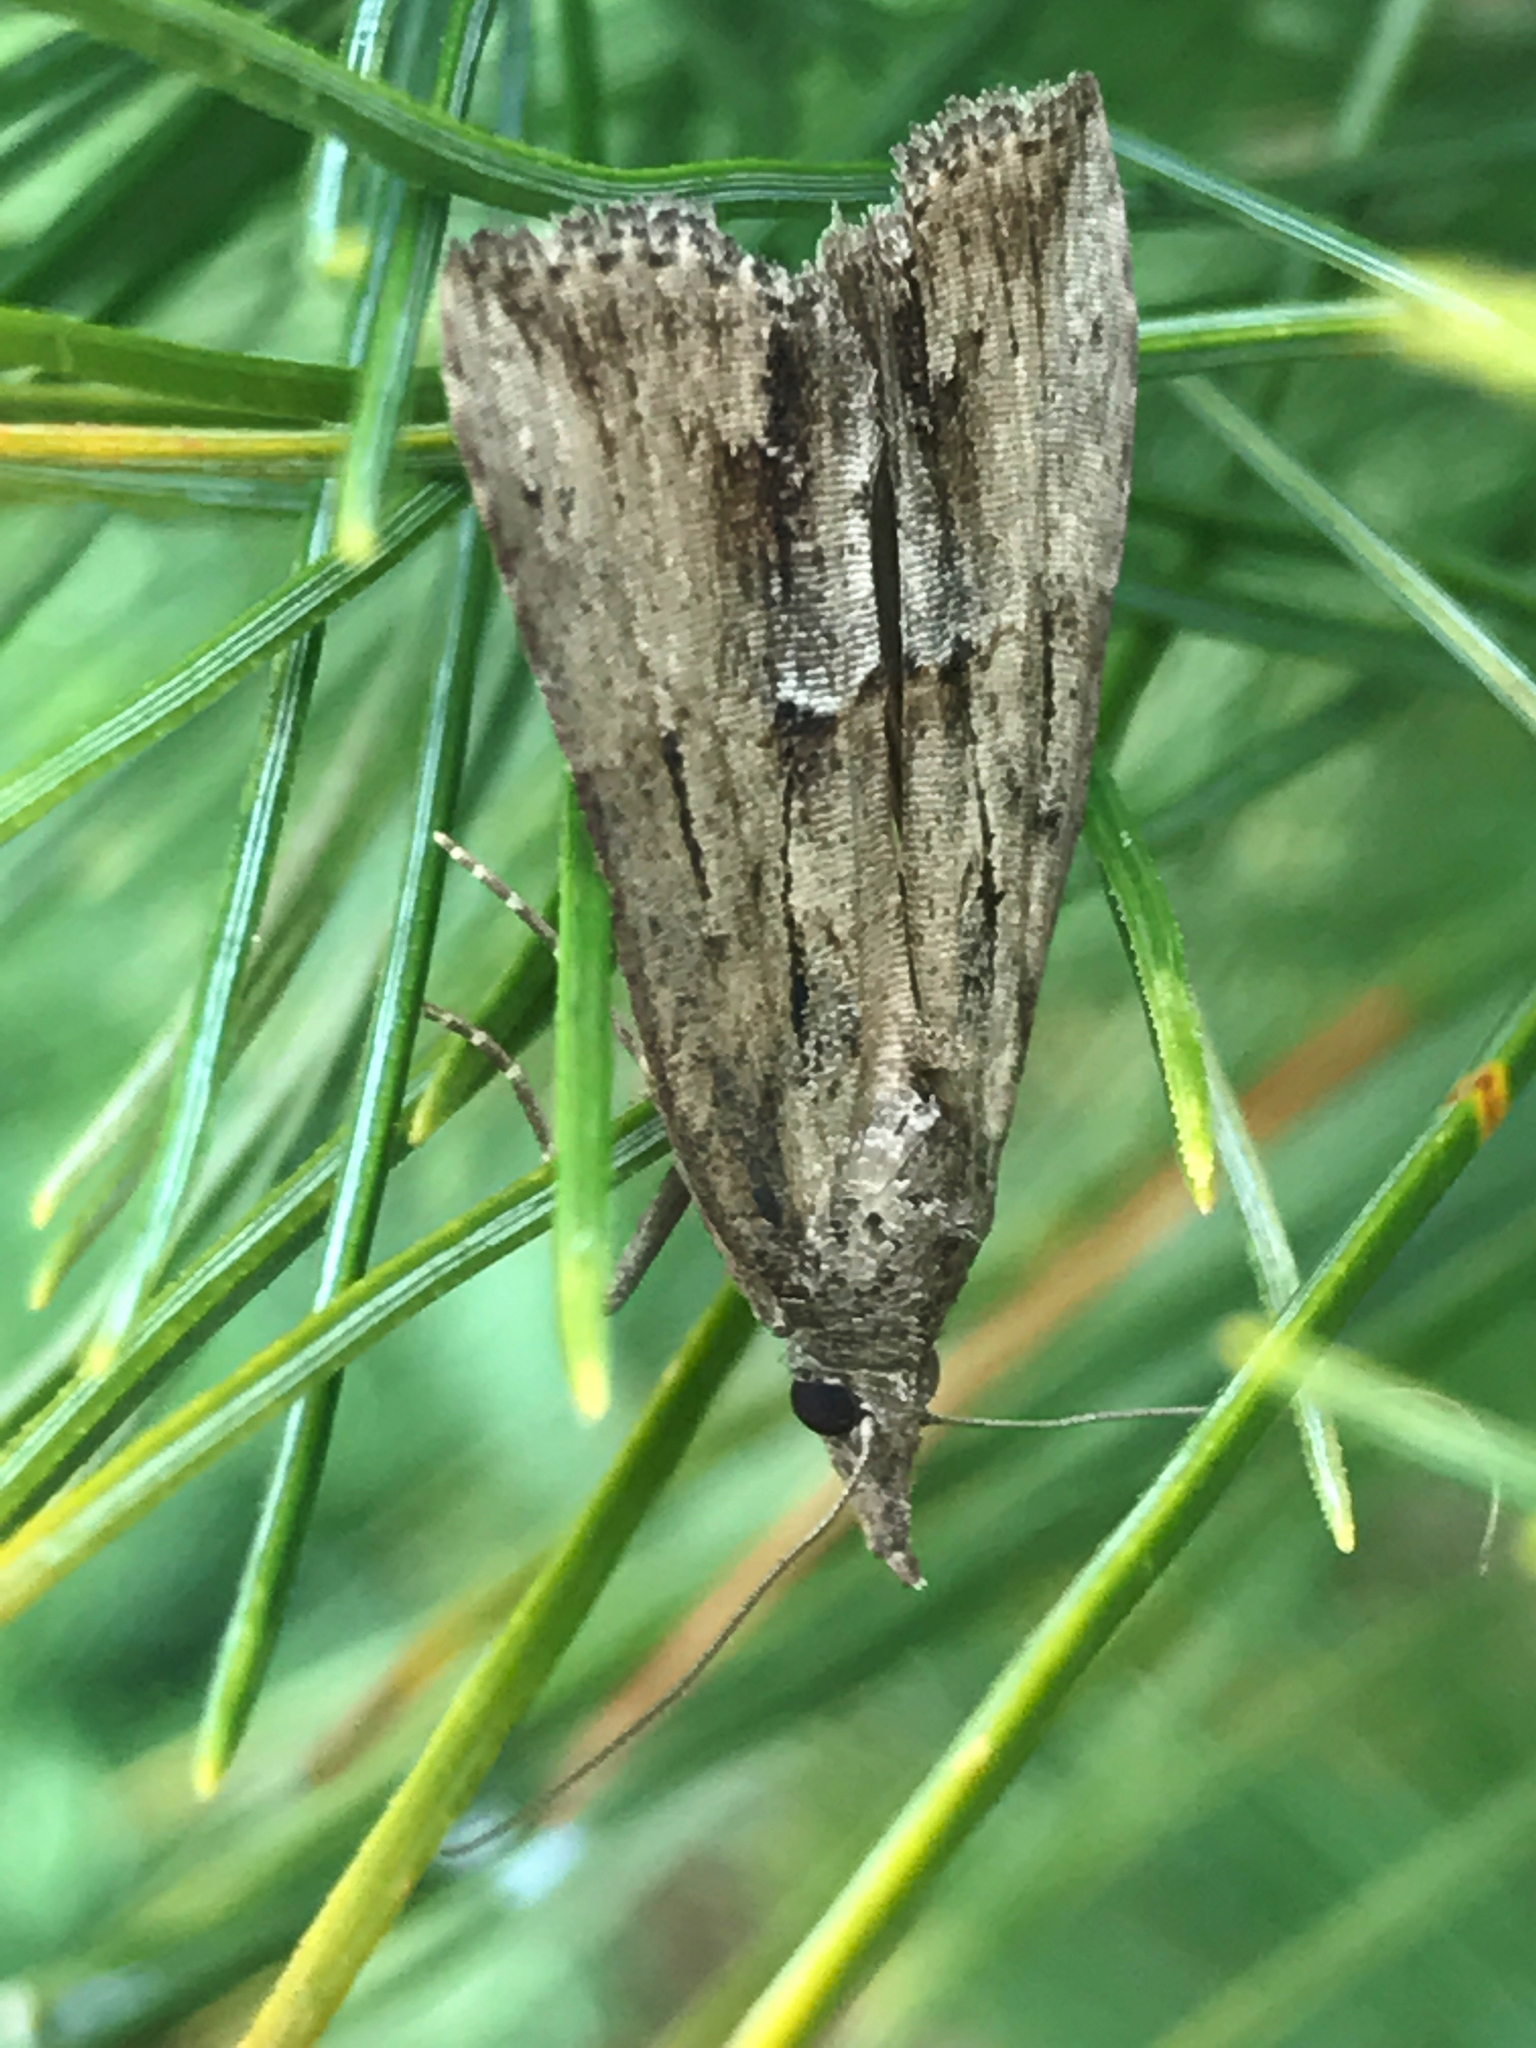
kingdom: Animalia
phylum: Arthropoda
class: Insecta
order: Lepidoptera
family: Erebidae
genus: Hypena
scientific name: Hypena scabra
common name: Green cloverworm
